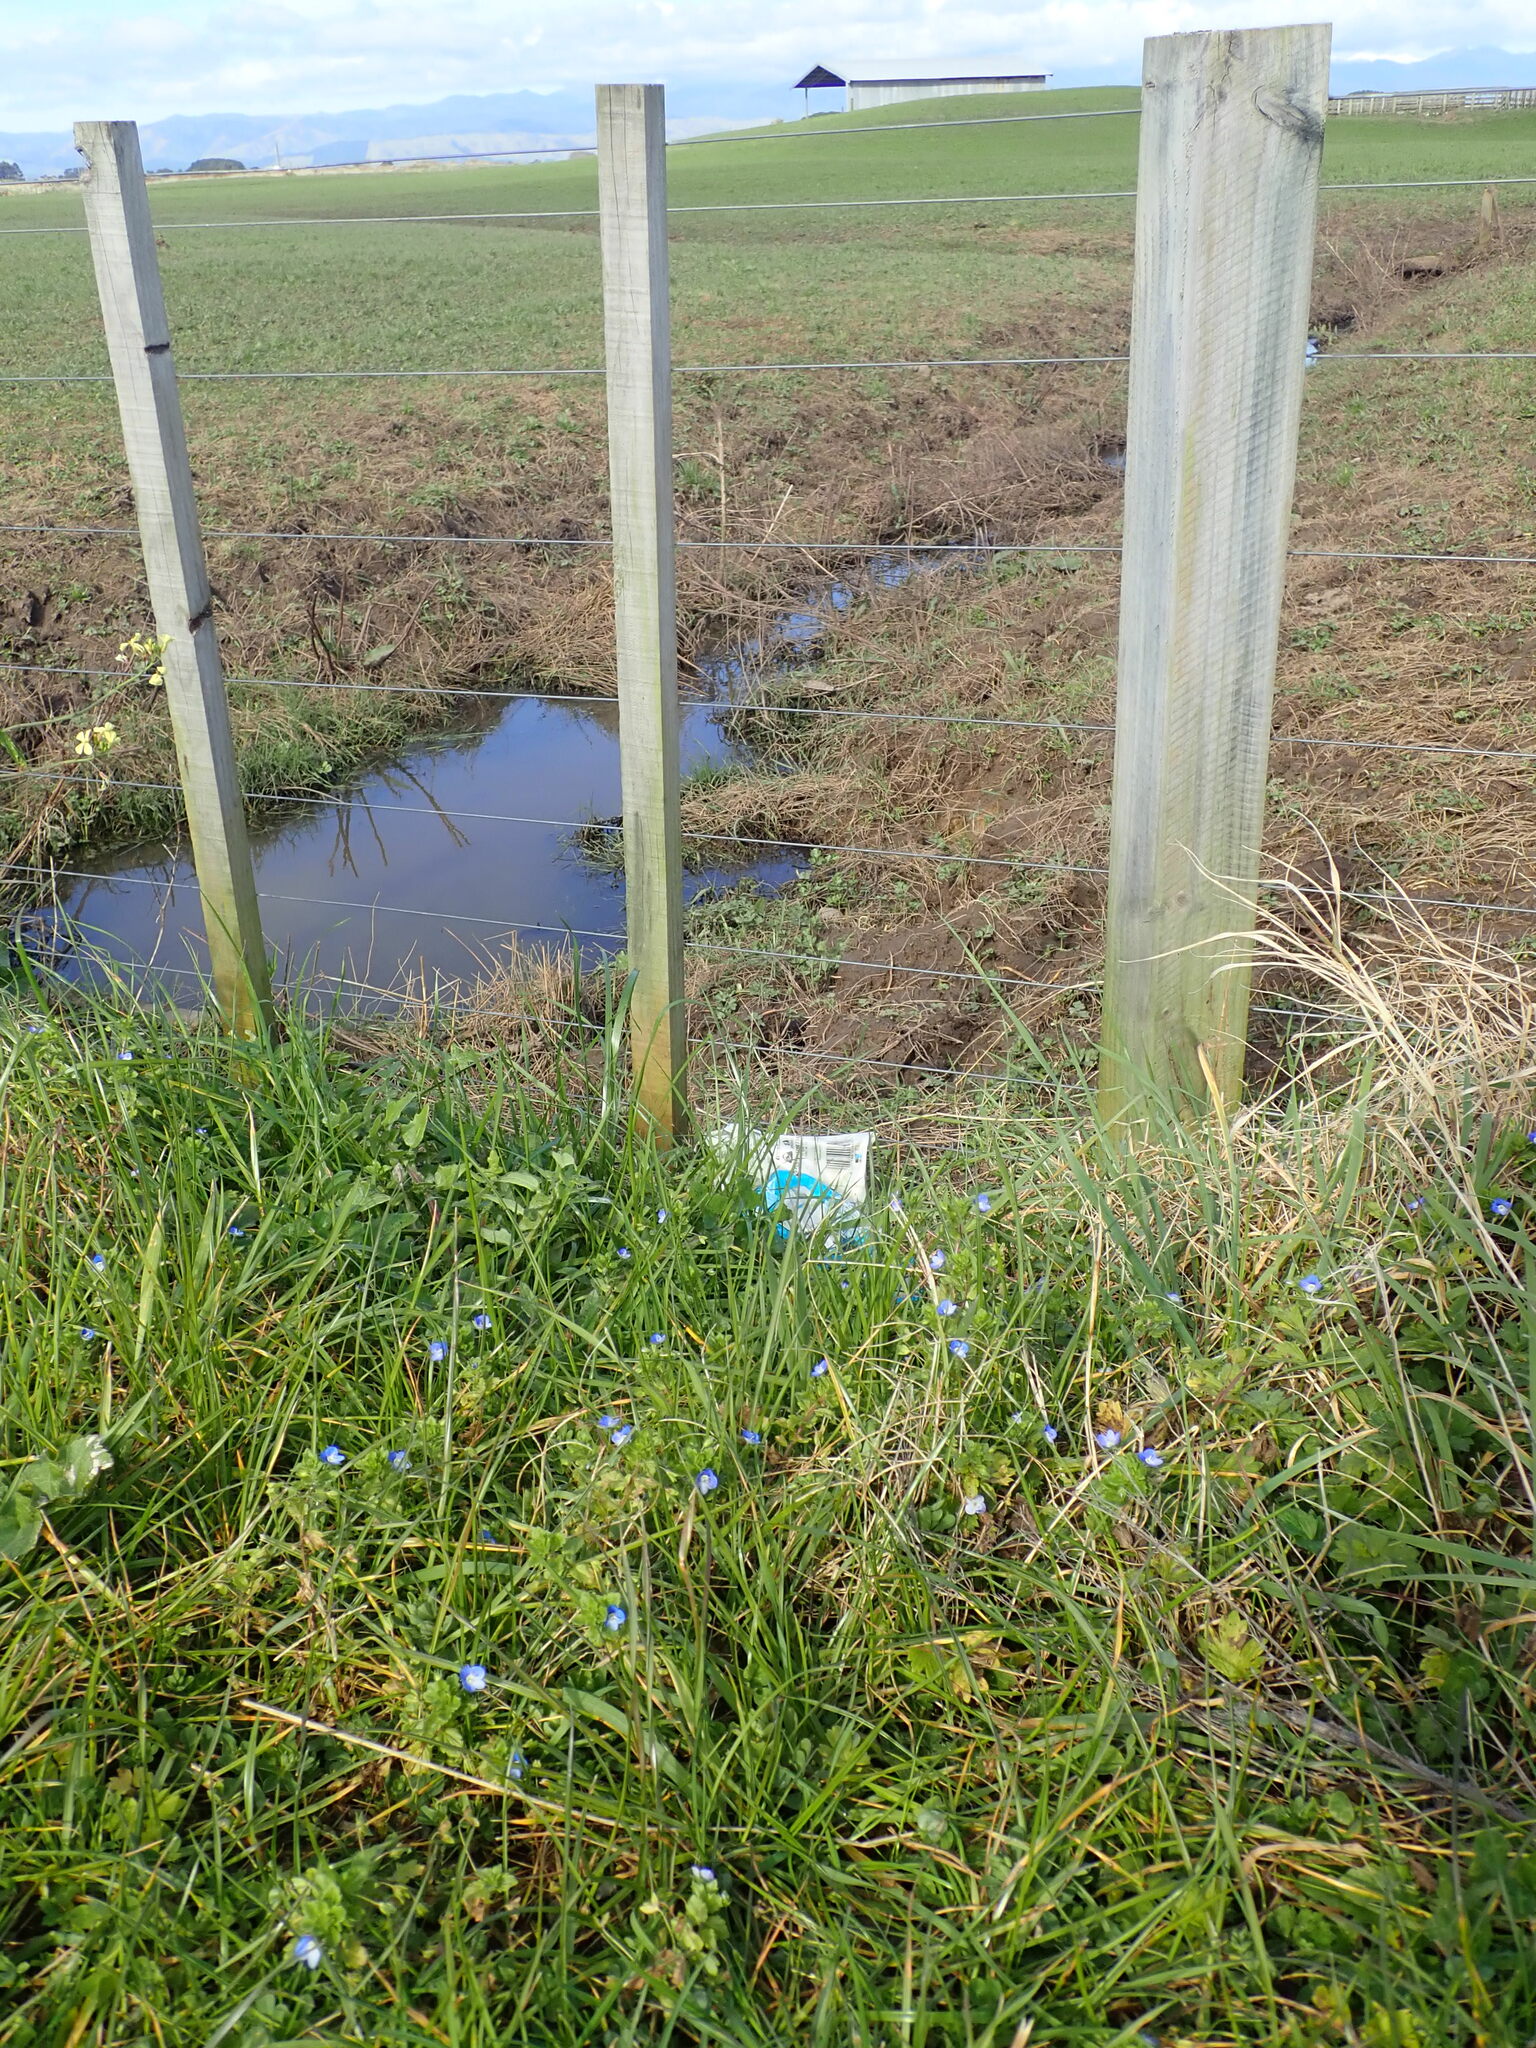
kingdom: Plantae
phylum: Tracheophyta
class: Magnoliopsida
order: Lamiales
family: Plantaginaceae
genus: Veronica
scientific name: Veronica persica
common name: Common field-speedwell
